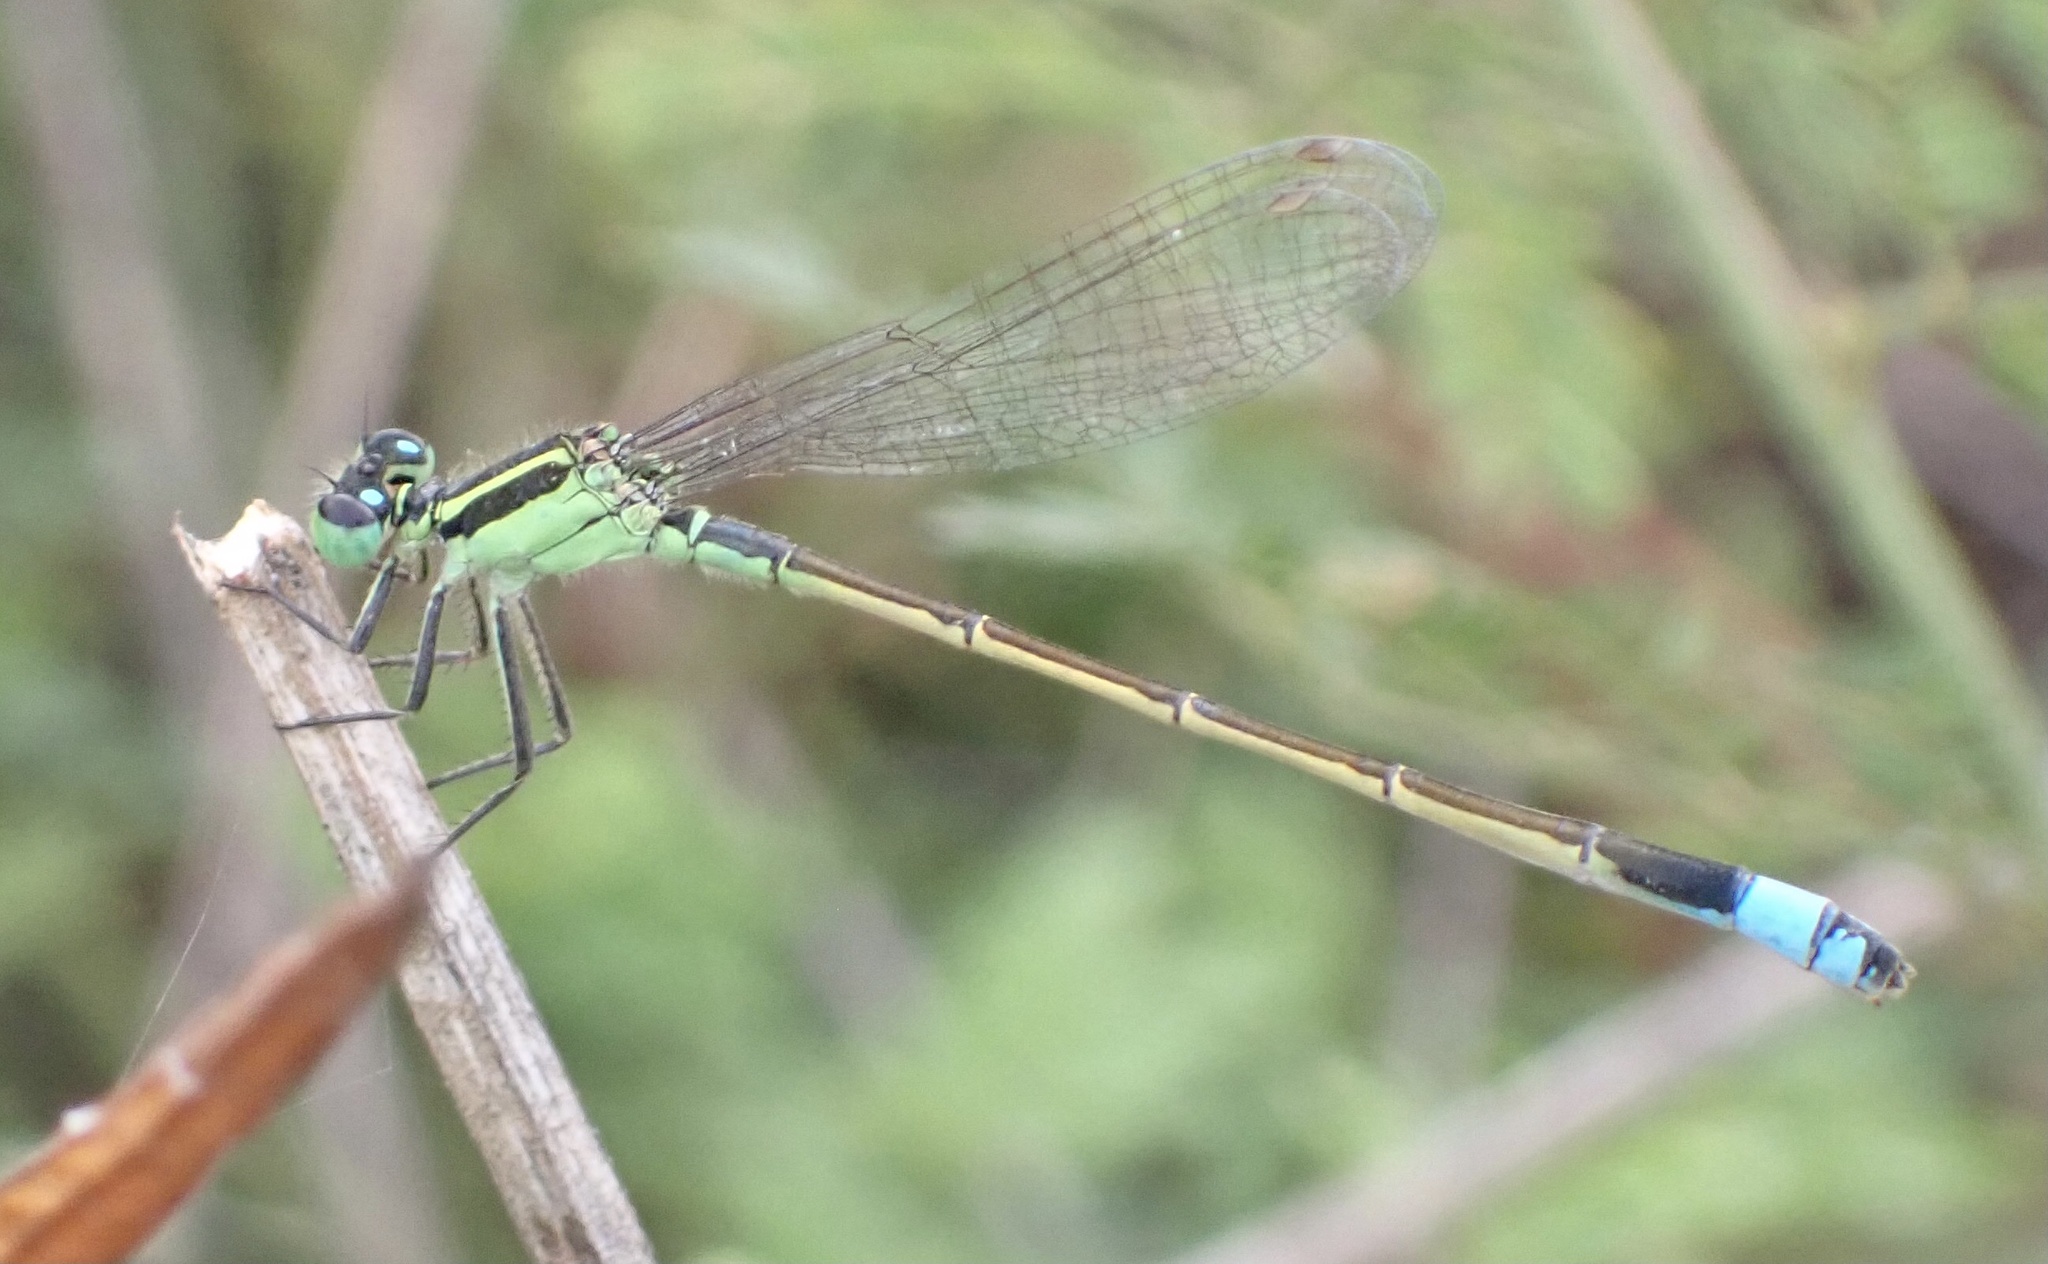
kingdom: Animalia
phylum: Arthropoda
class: Insecta
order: Odonata
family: Coenagrionidae
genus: Ischnura
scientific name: Ischnura ramburii
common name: Rambur's forktail
